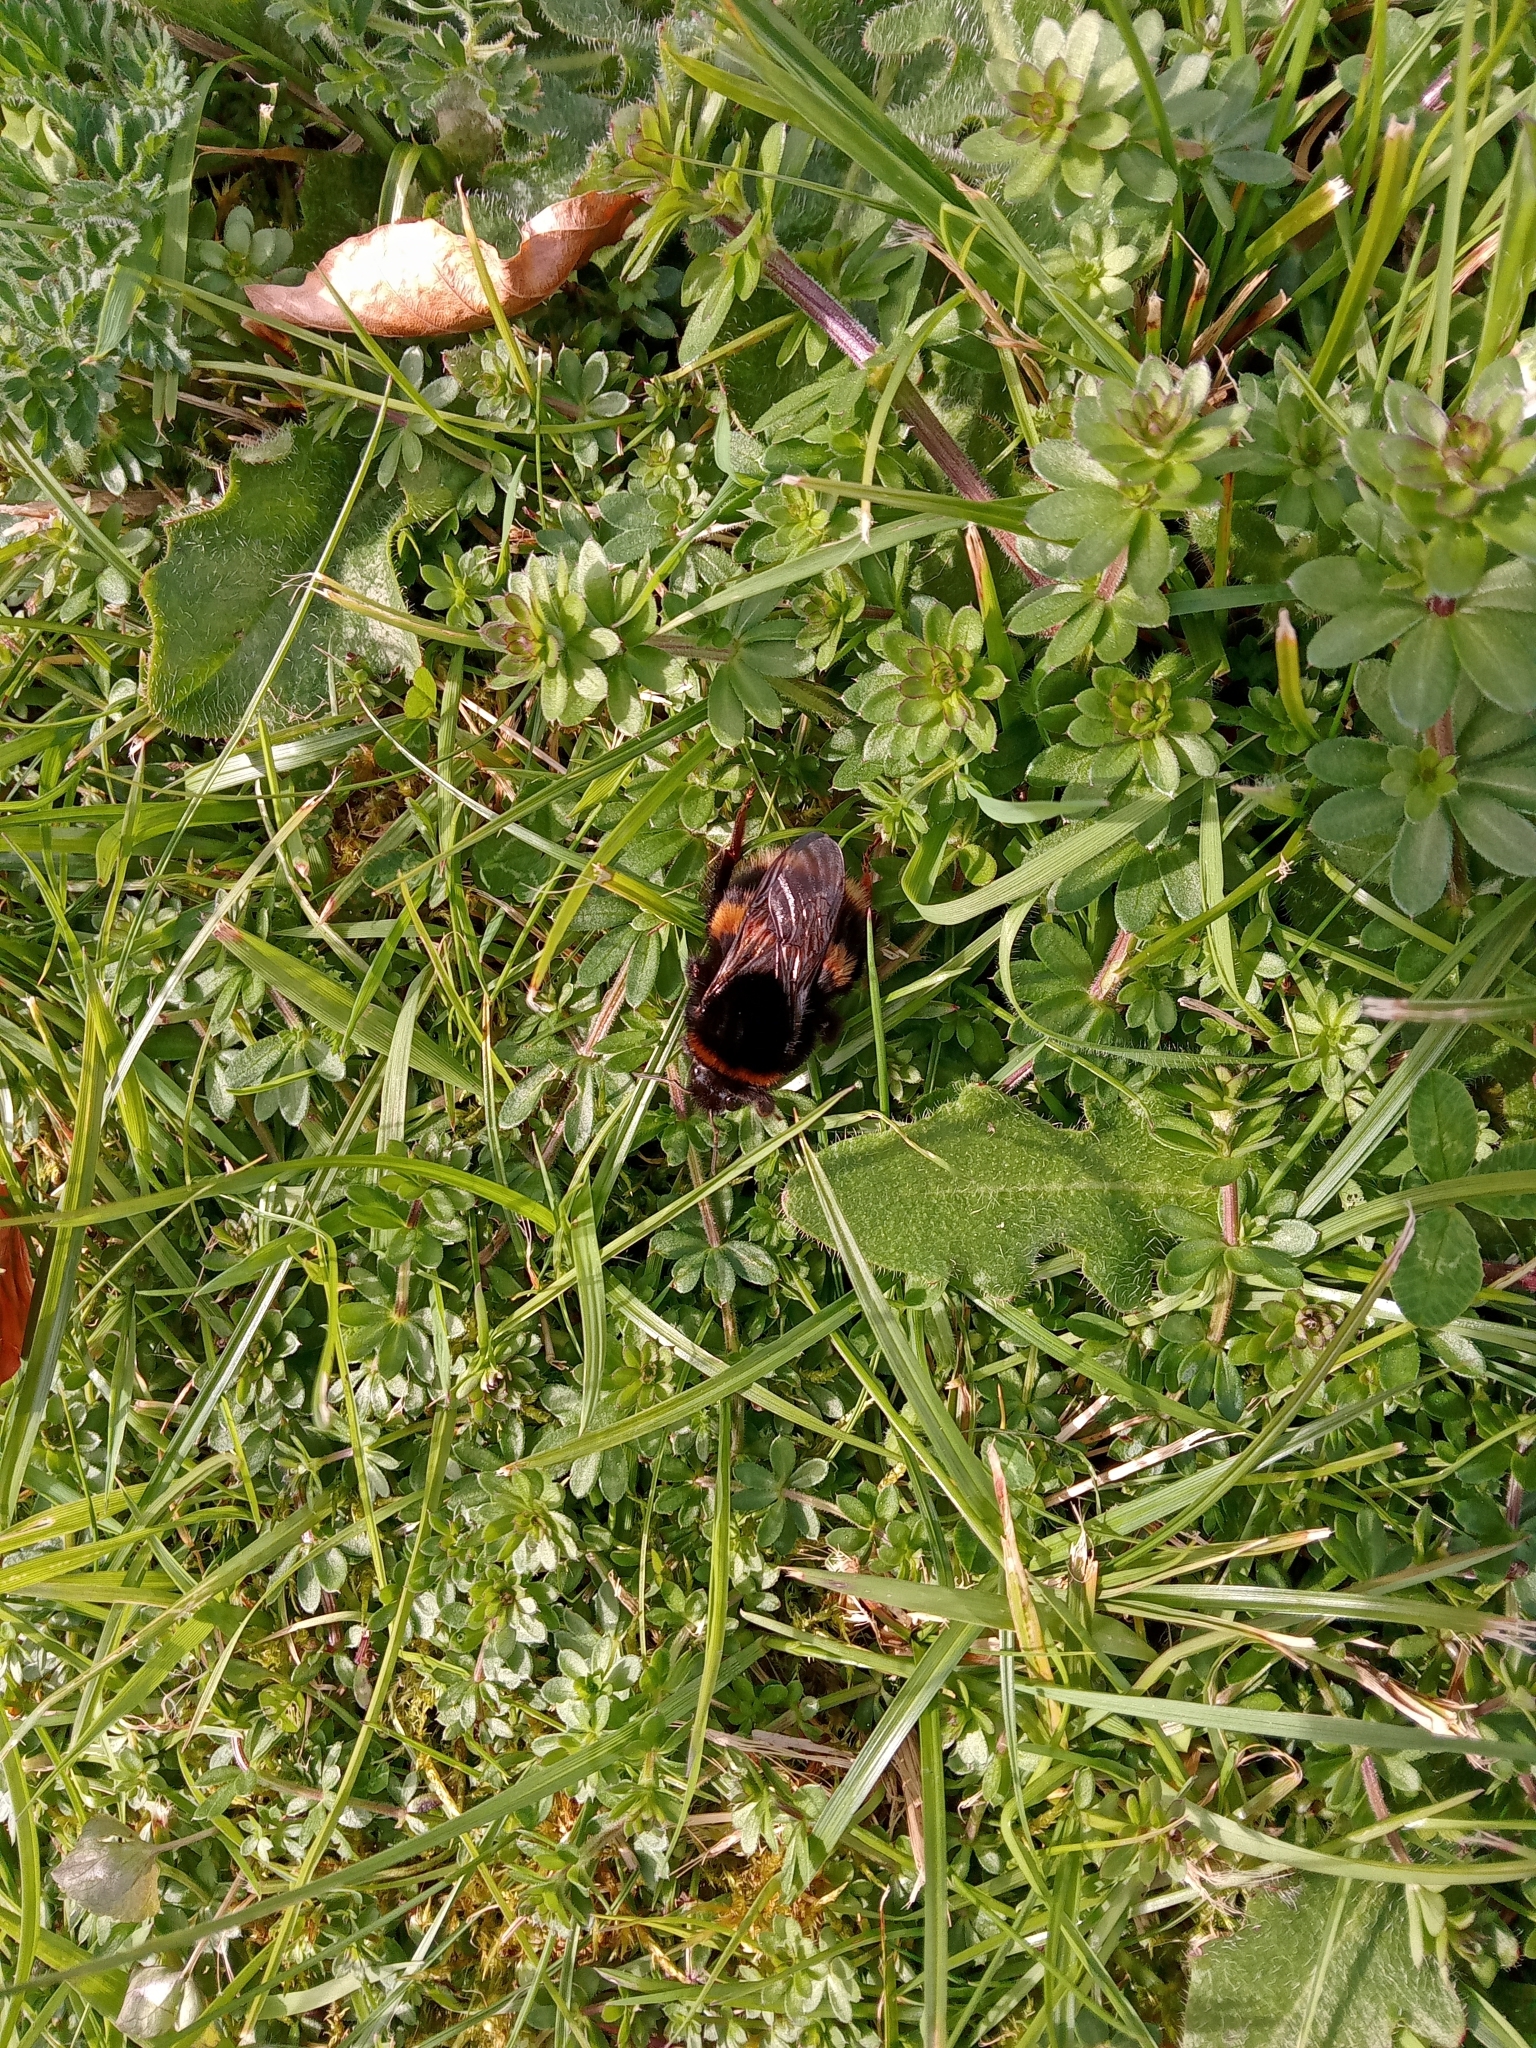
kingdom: Animalia
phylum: Arthropoda
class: Insecta
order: Hymenoptera
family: Apidae
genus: Bombus
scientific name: Bombus terrestris
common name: Buff-tailed bumblebee
